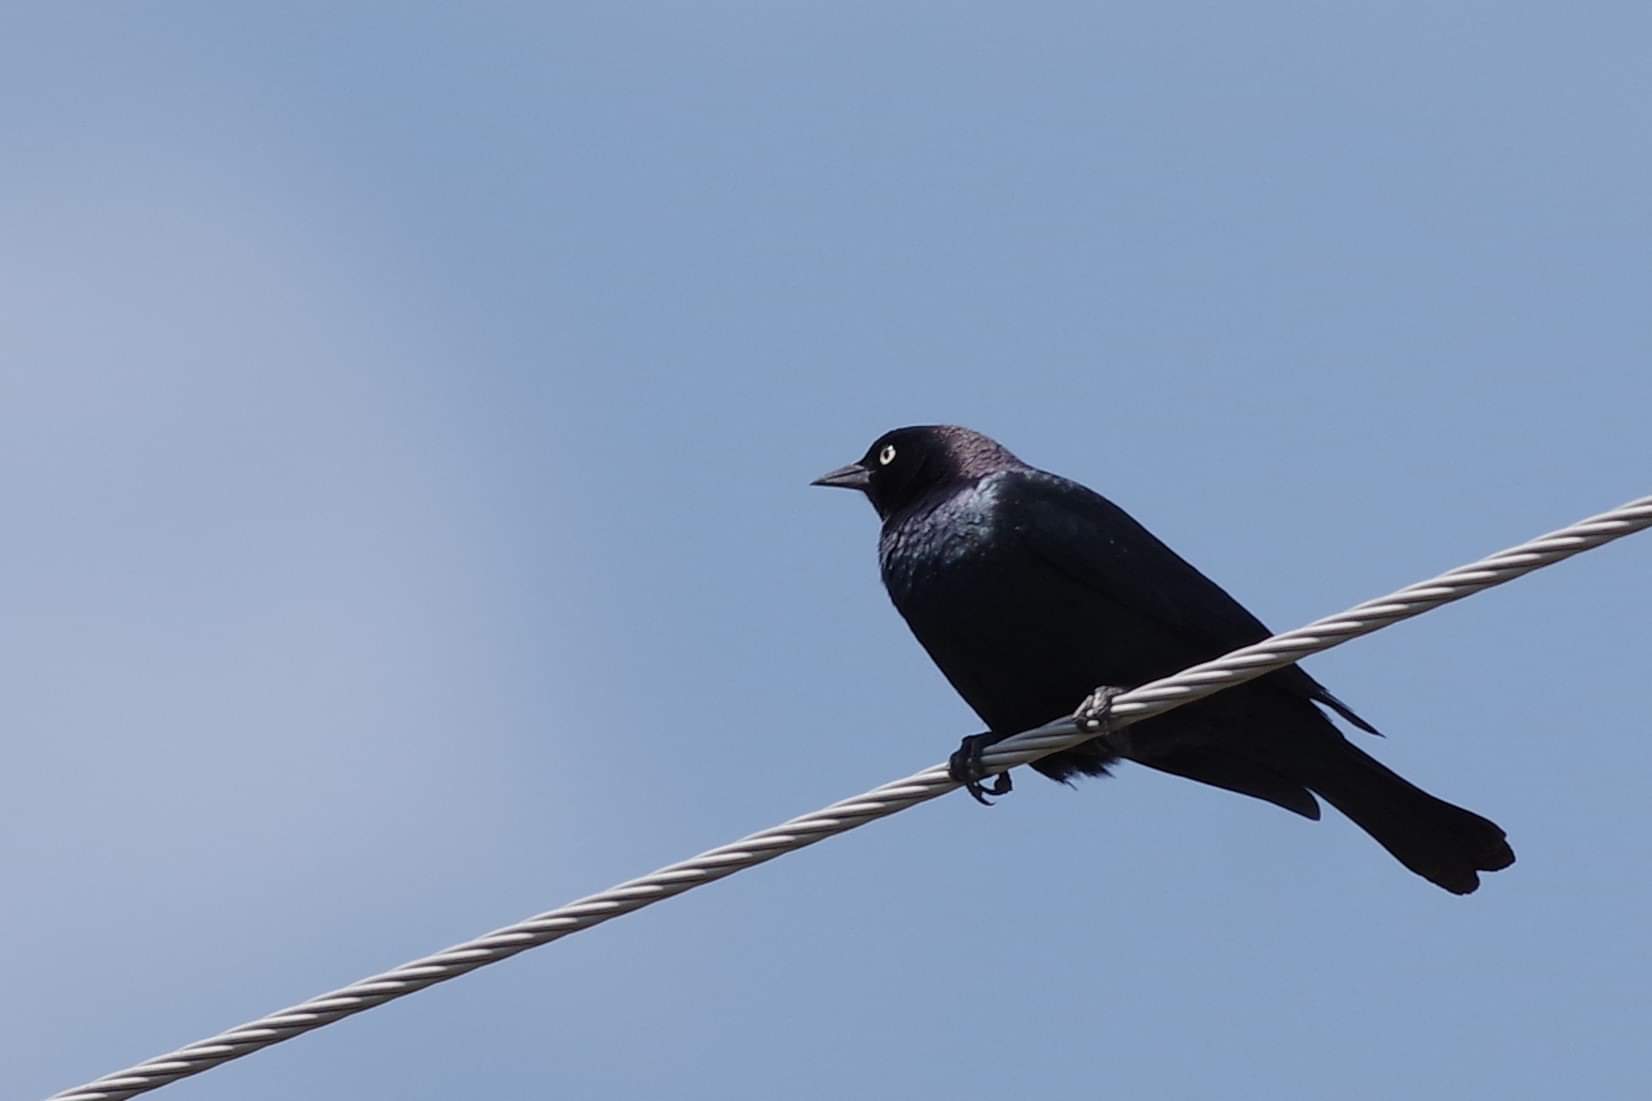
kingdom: Animalia
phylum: Chordata
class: Aves
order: Passeriformes
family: Icteridae
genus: Euphagus
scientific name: Euphagus cyanocephalus
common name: Brewer's blackbird
